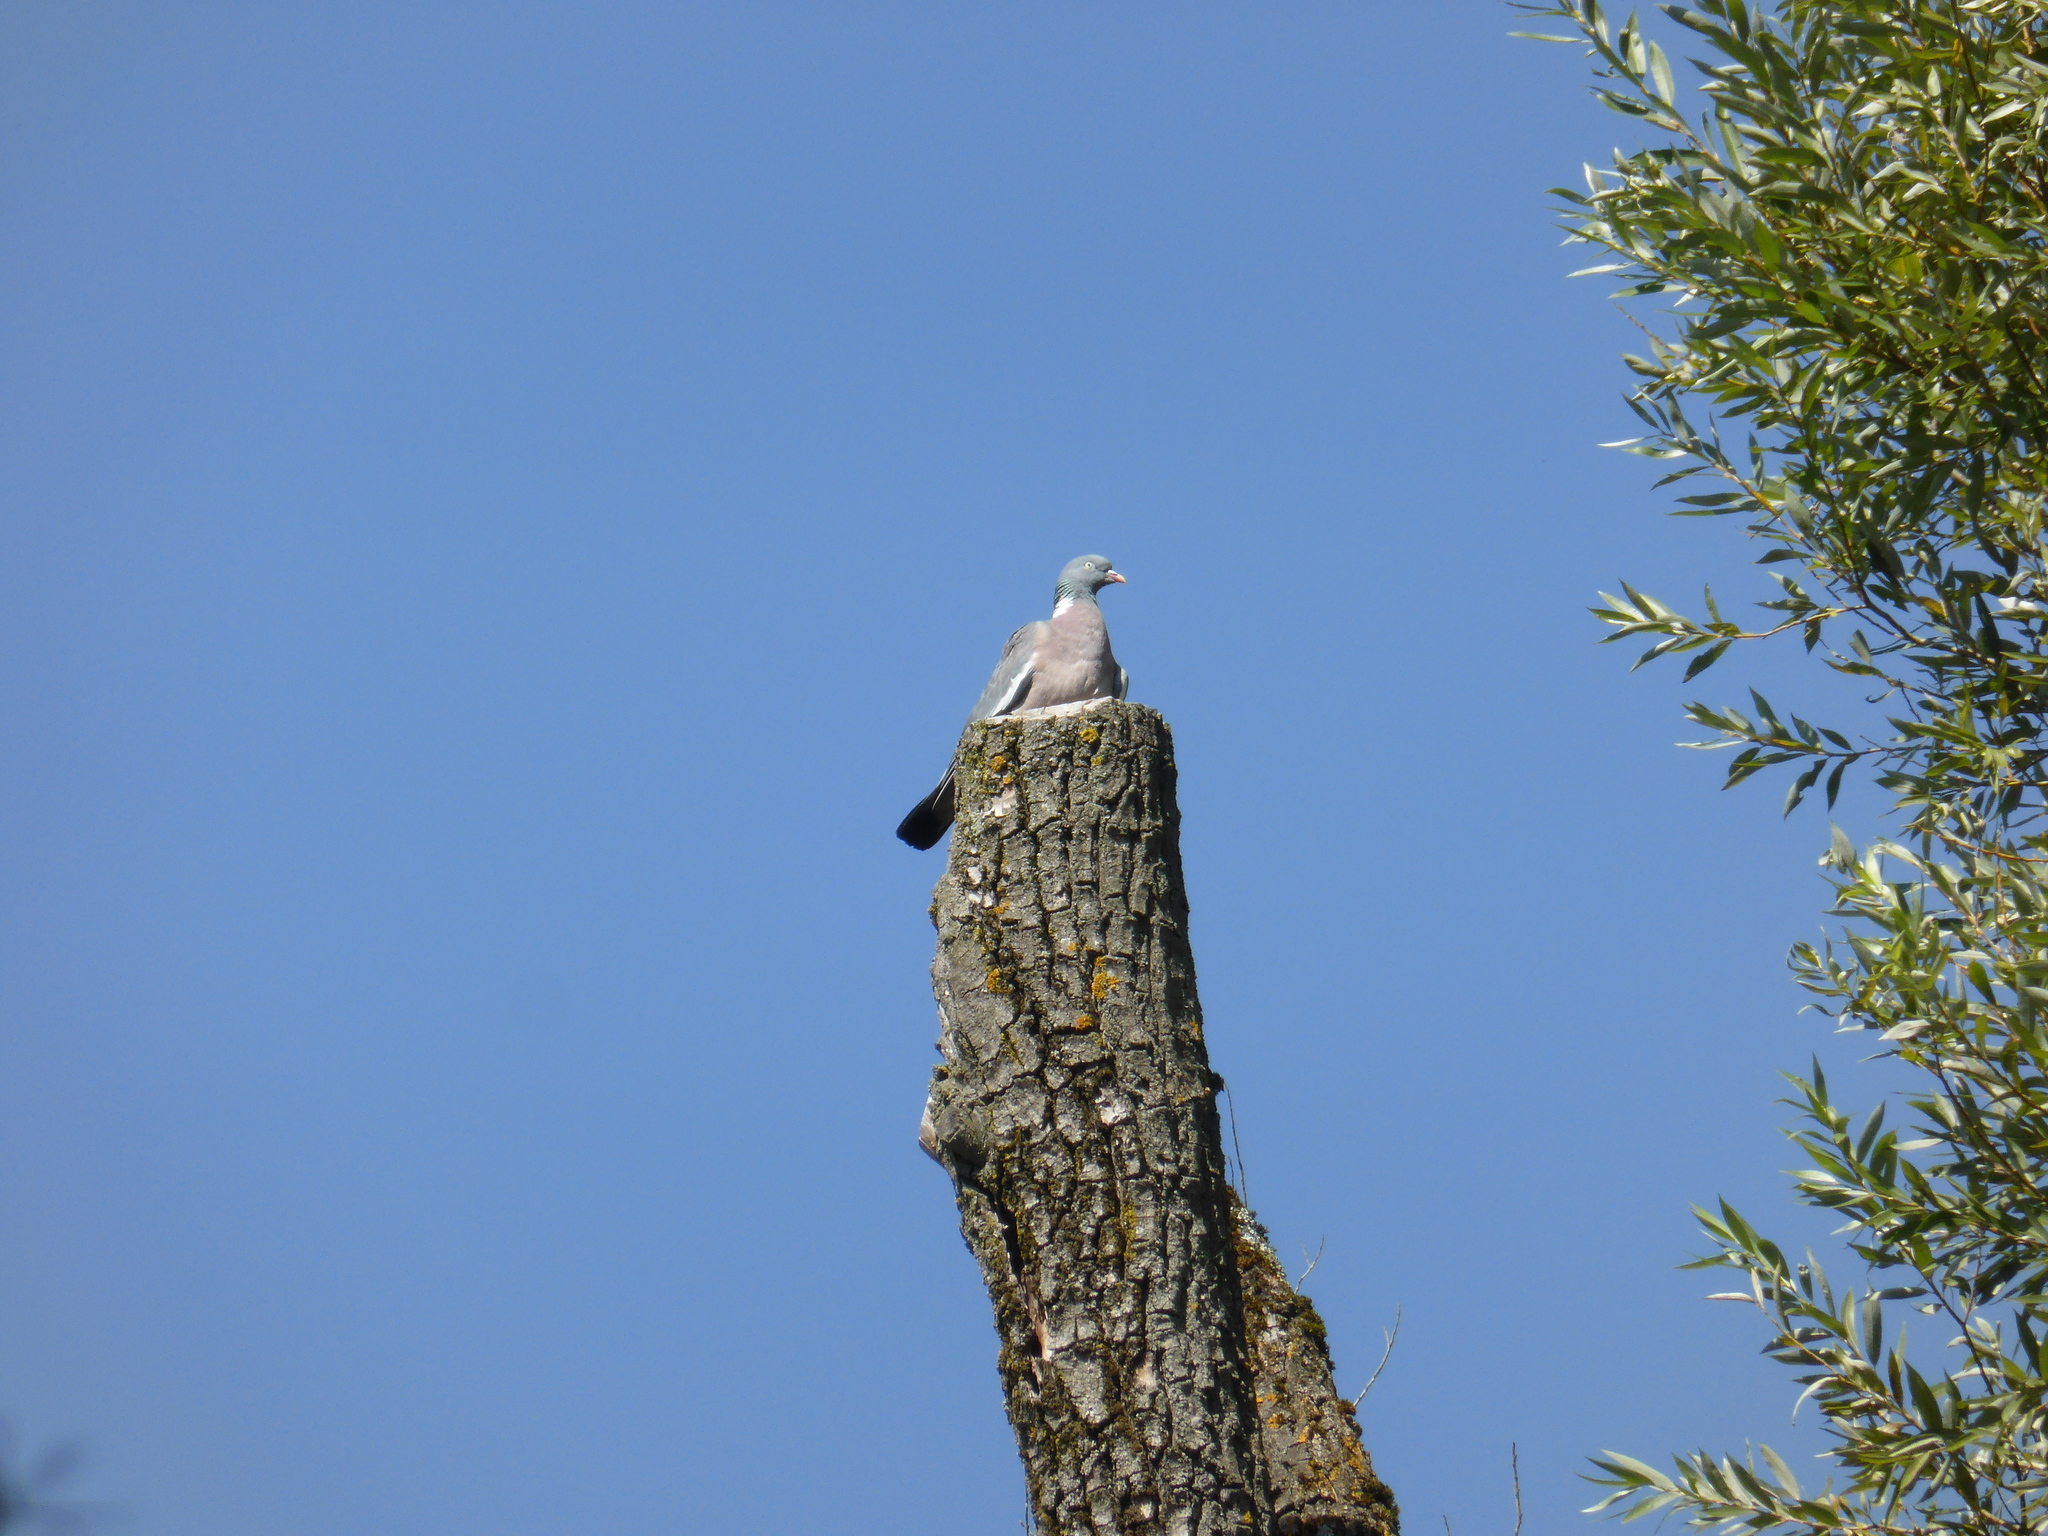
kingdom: Animalia
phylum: Chordata
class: Aves
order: Columbiformes
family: Columbidae
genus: Columba
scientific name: Columba palumbus
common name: Common wood pigeon
